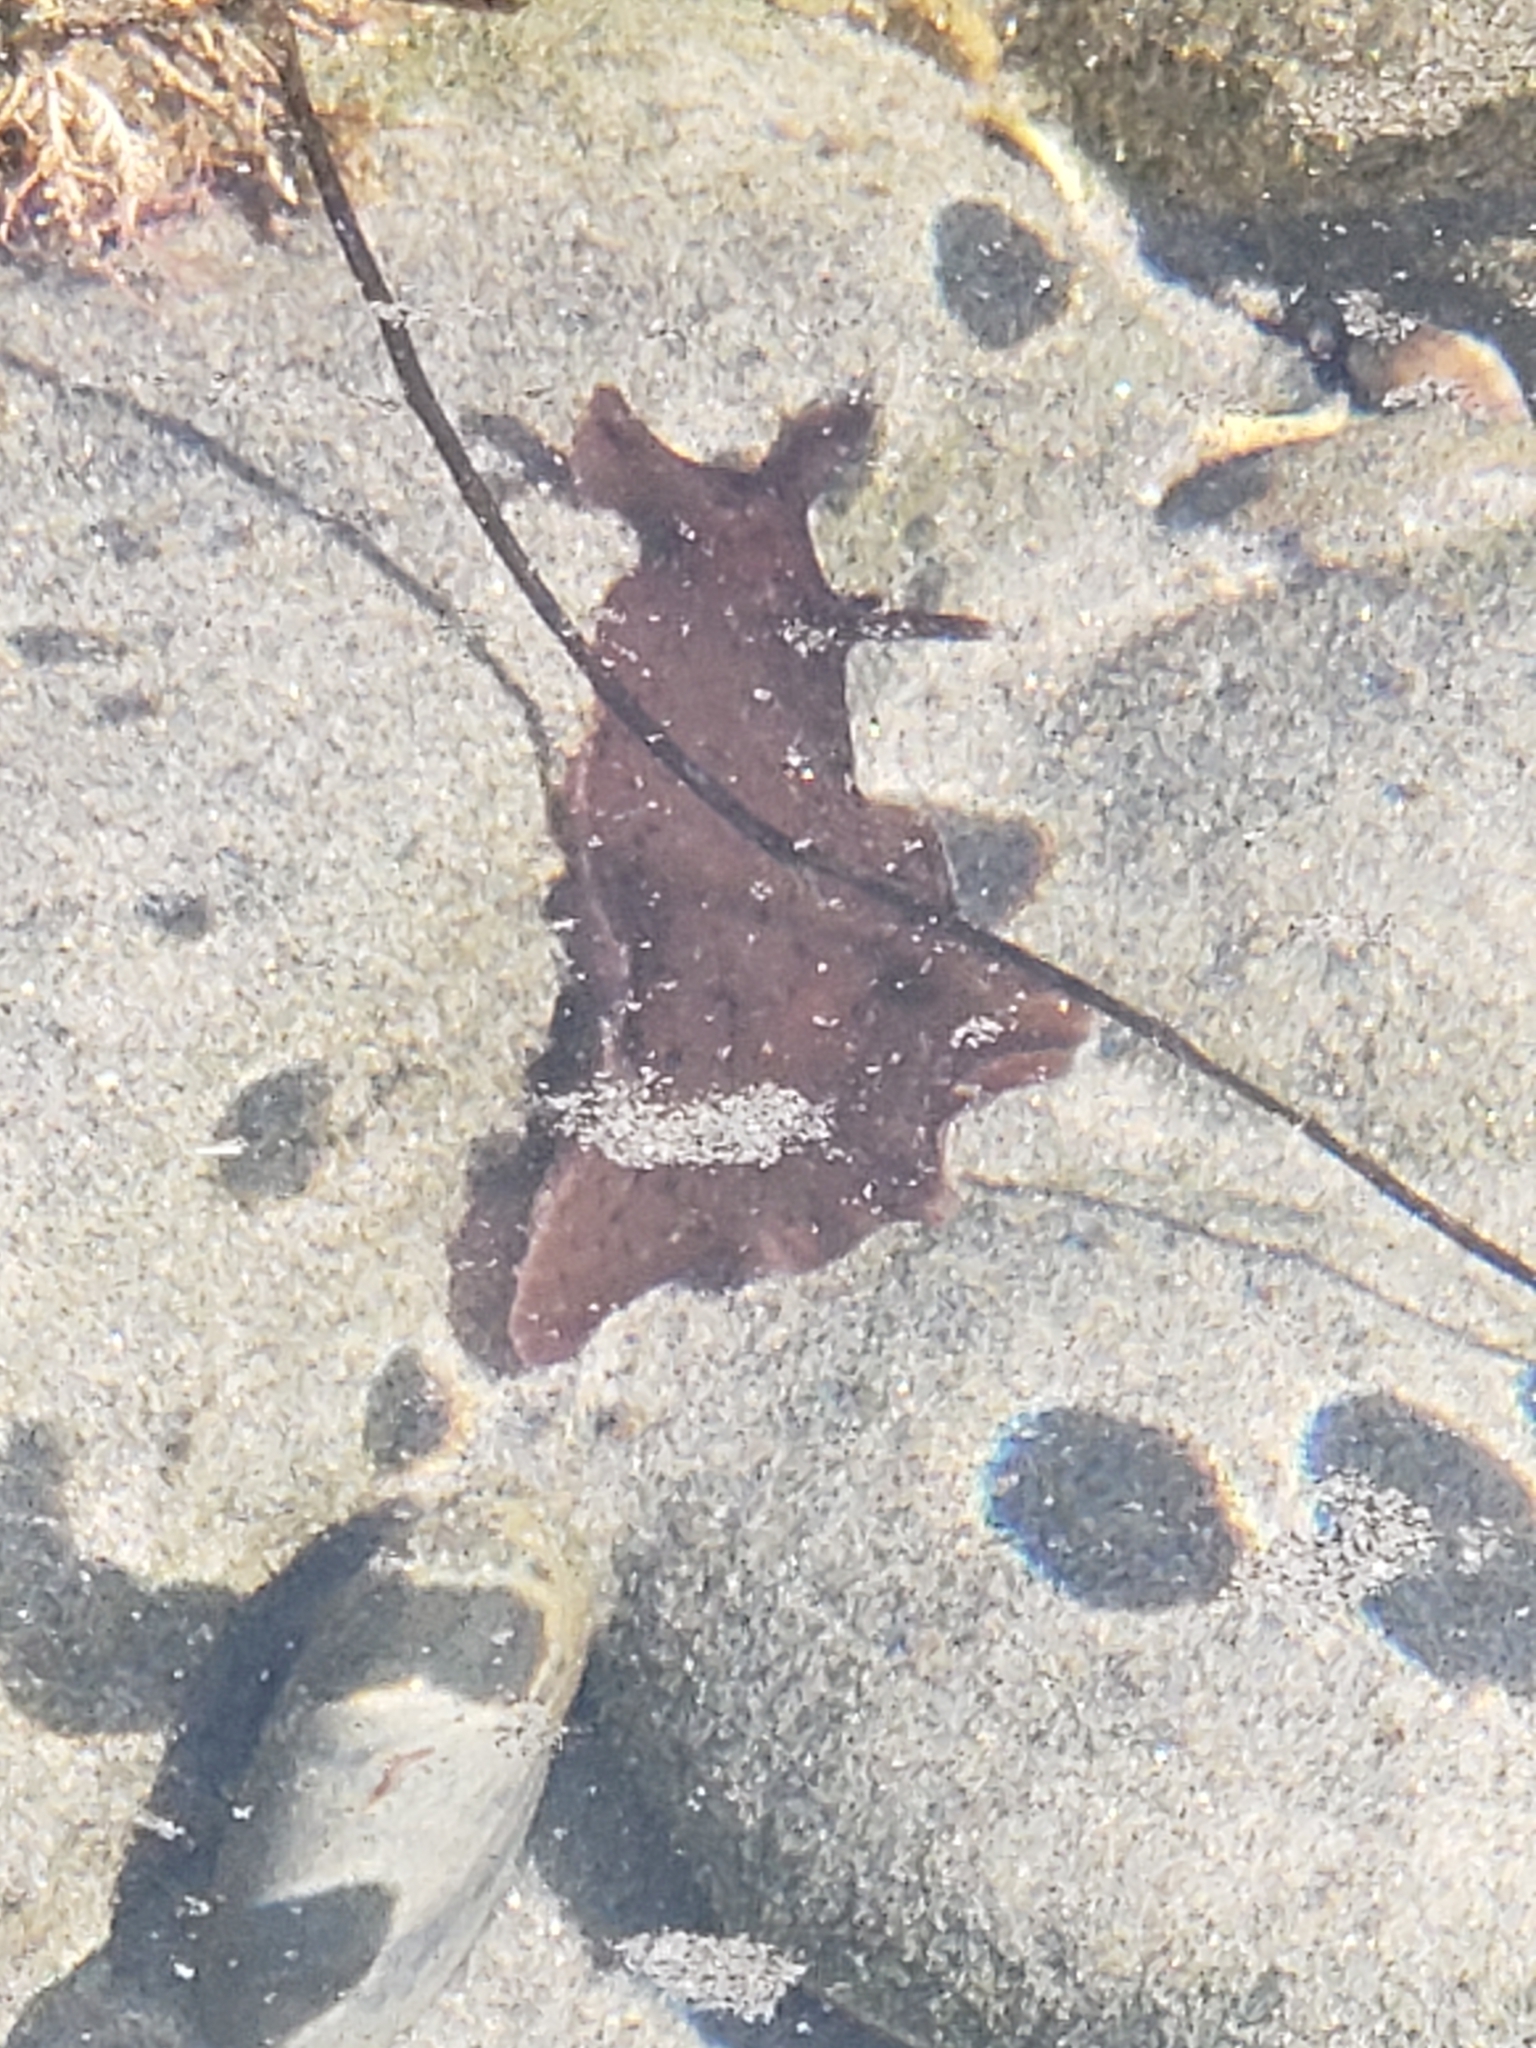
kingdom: Animalia
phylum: Mollusca
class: Gastropoda
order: Aplysiida
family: Aplysiidae
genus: Aplysia
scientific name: Aplysia californica
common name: California seahare
